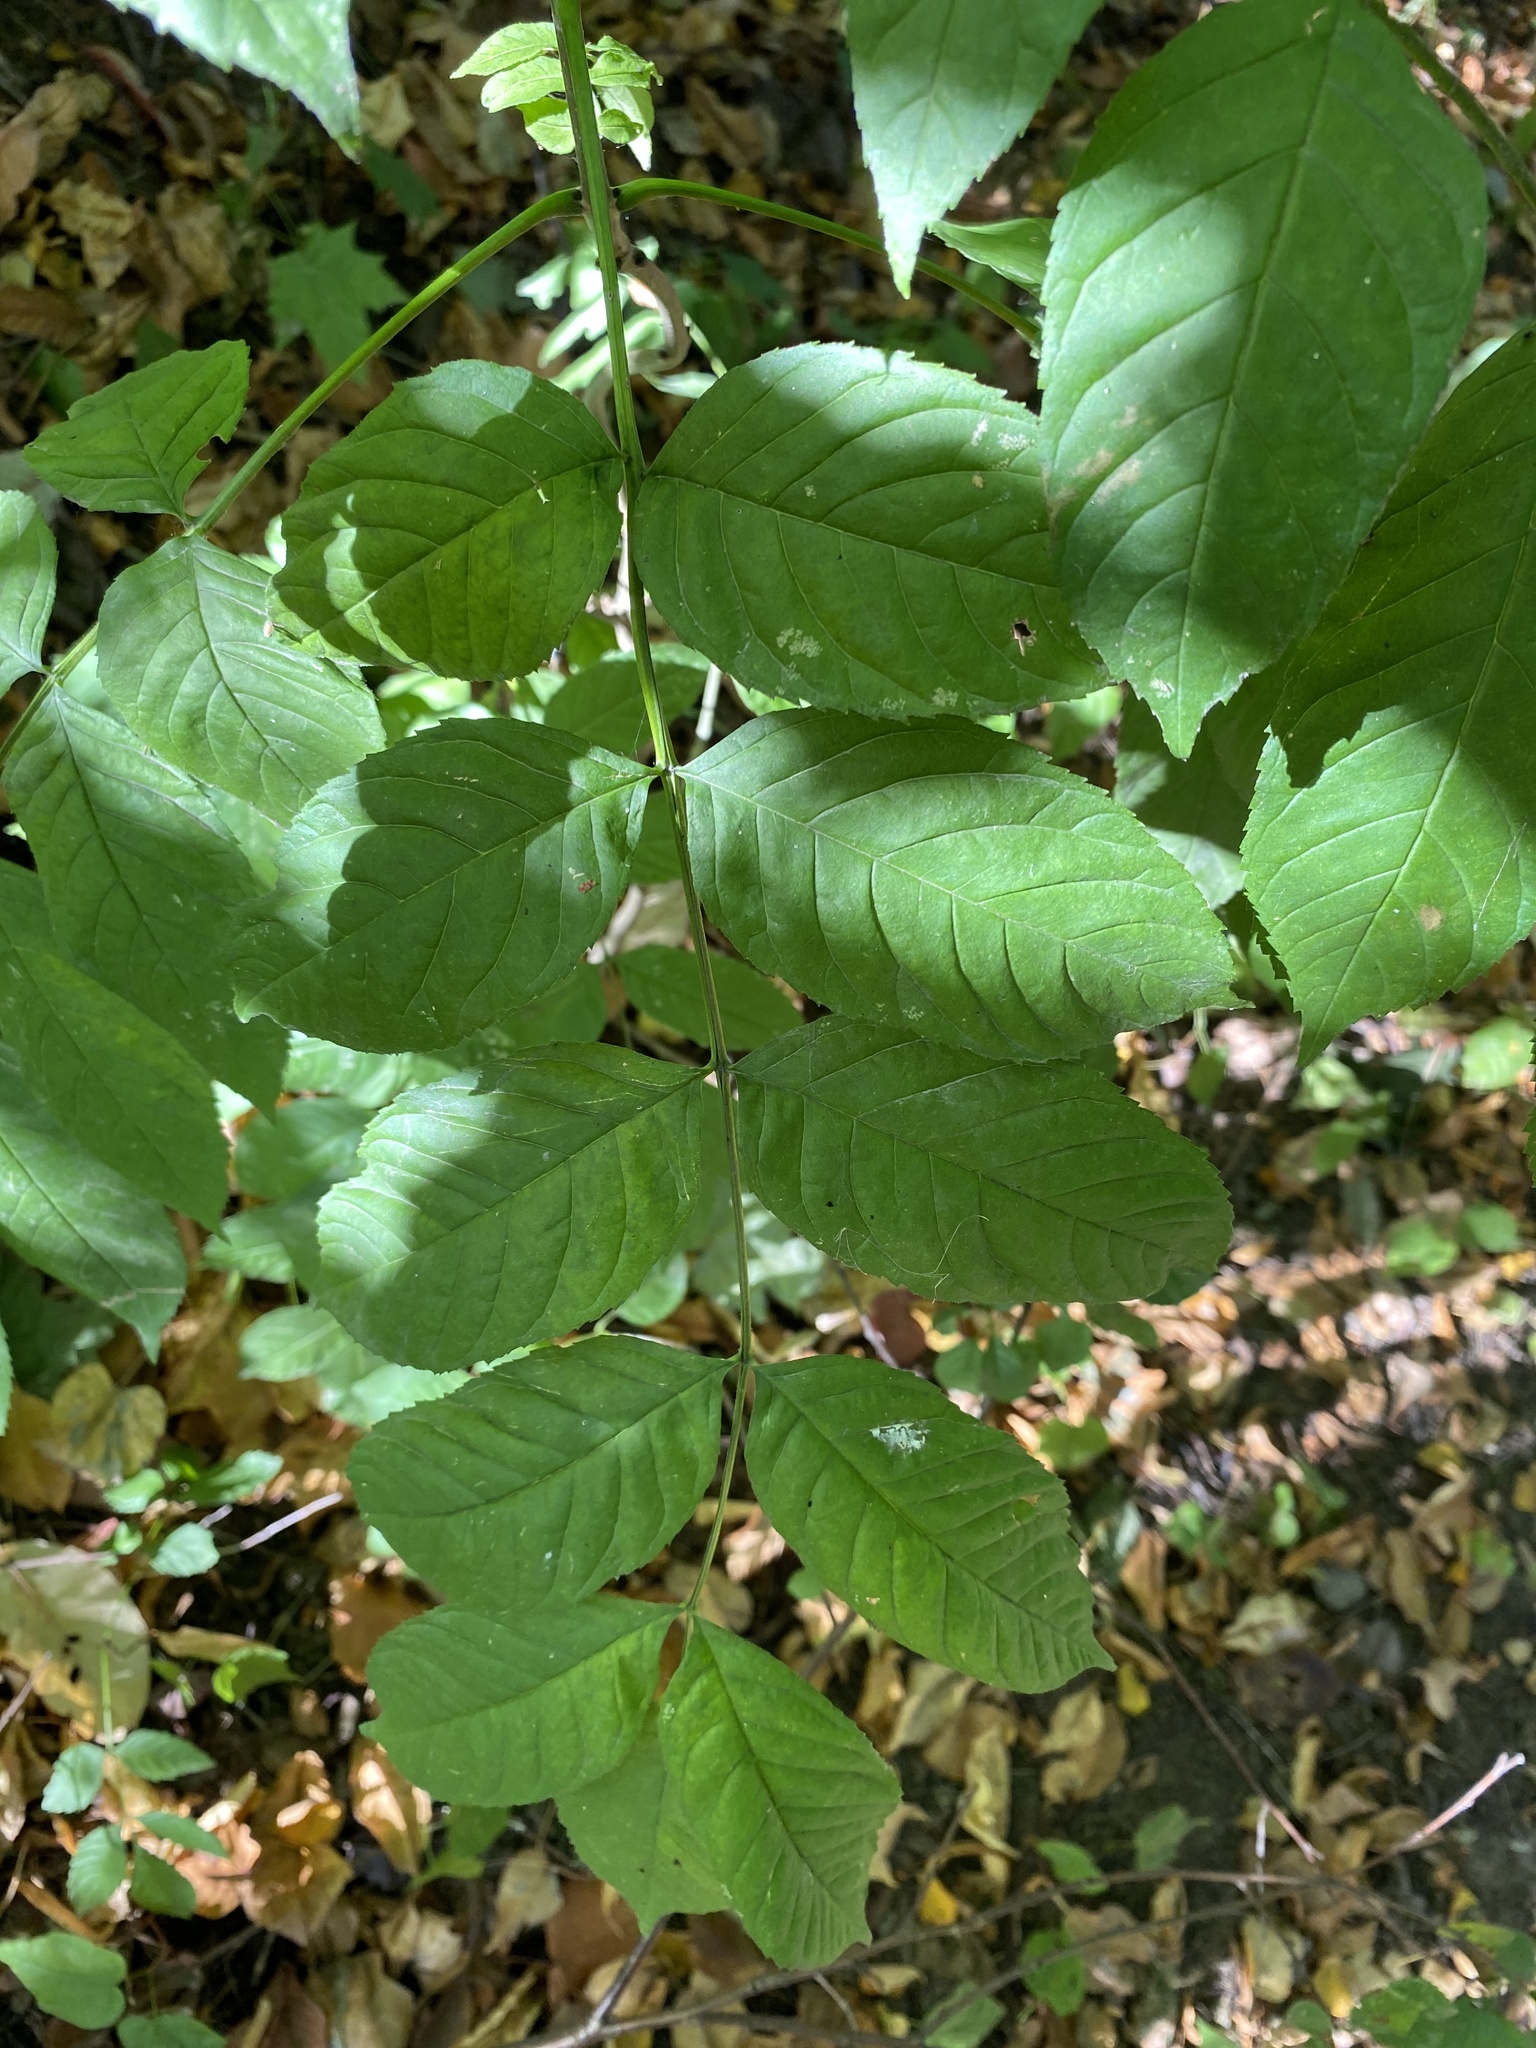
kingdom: Plantae
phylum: Tracheophyta
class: Magnoliopsida
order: Lamiales
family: Oleaceae
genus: Fraxinus
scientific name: Fraxinus excelsior
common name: European ash
